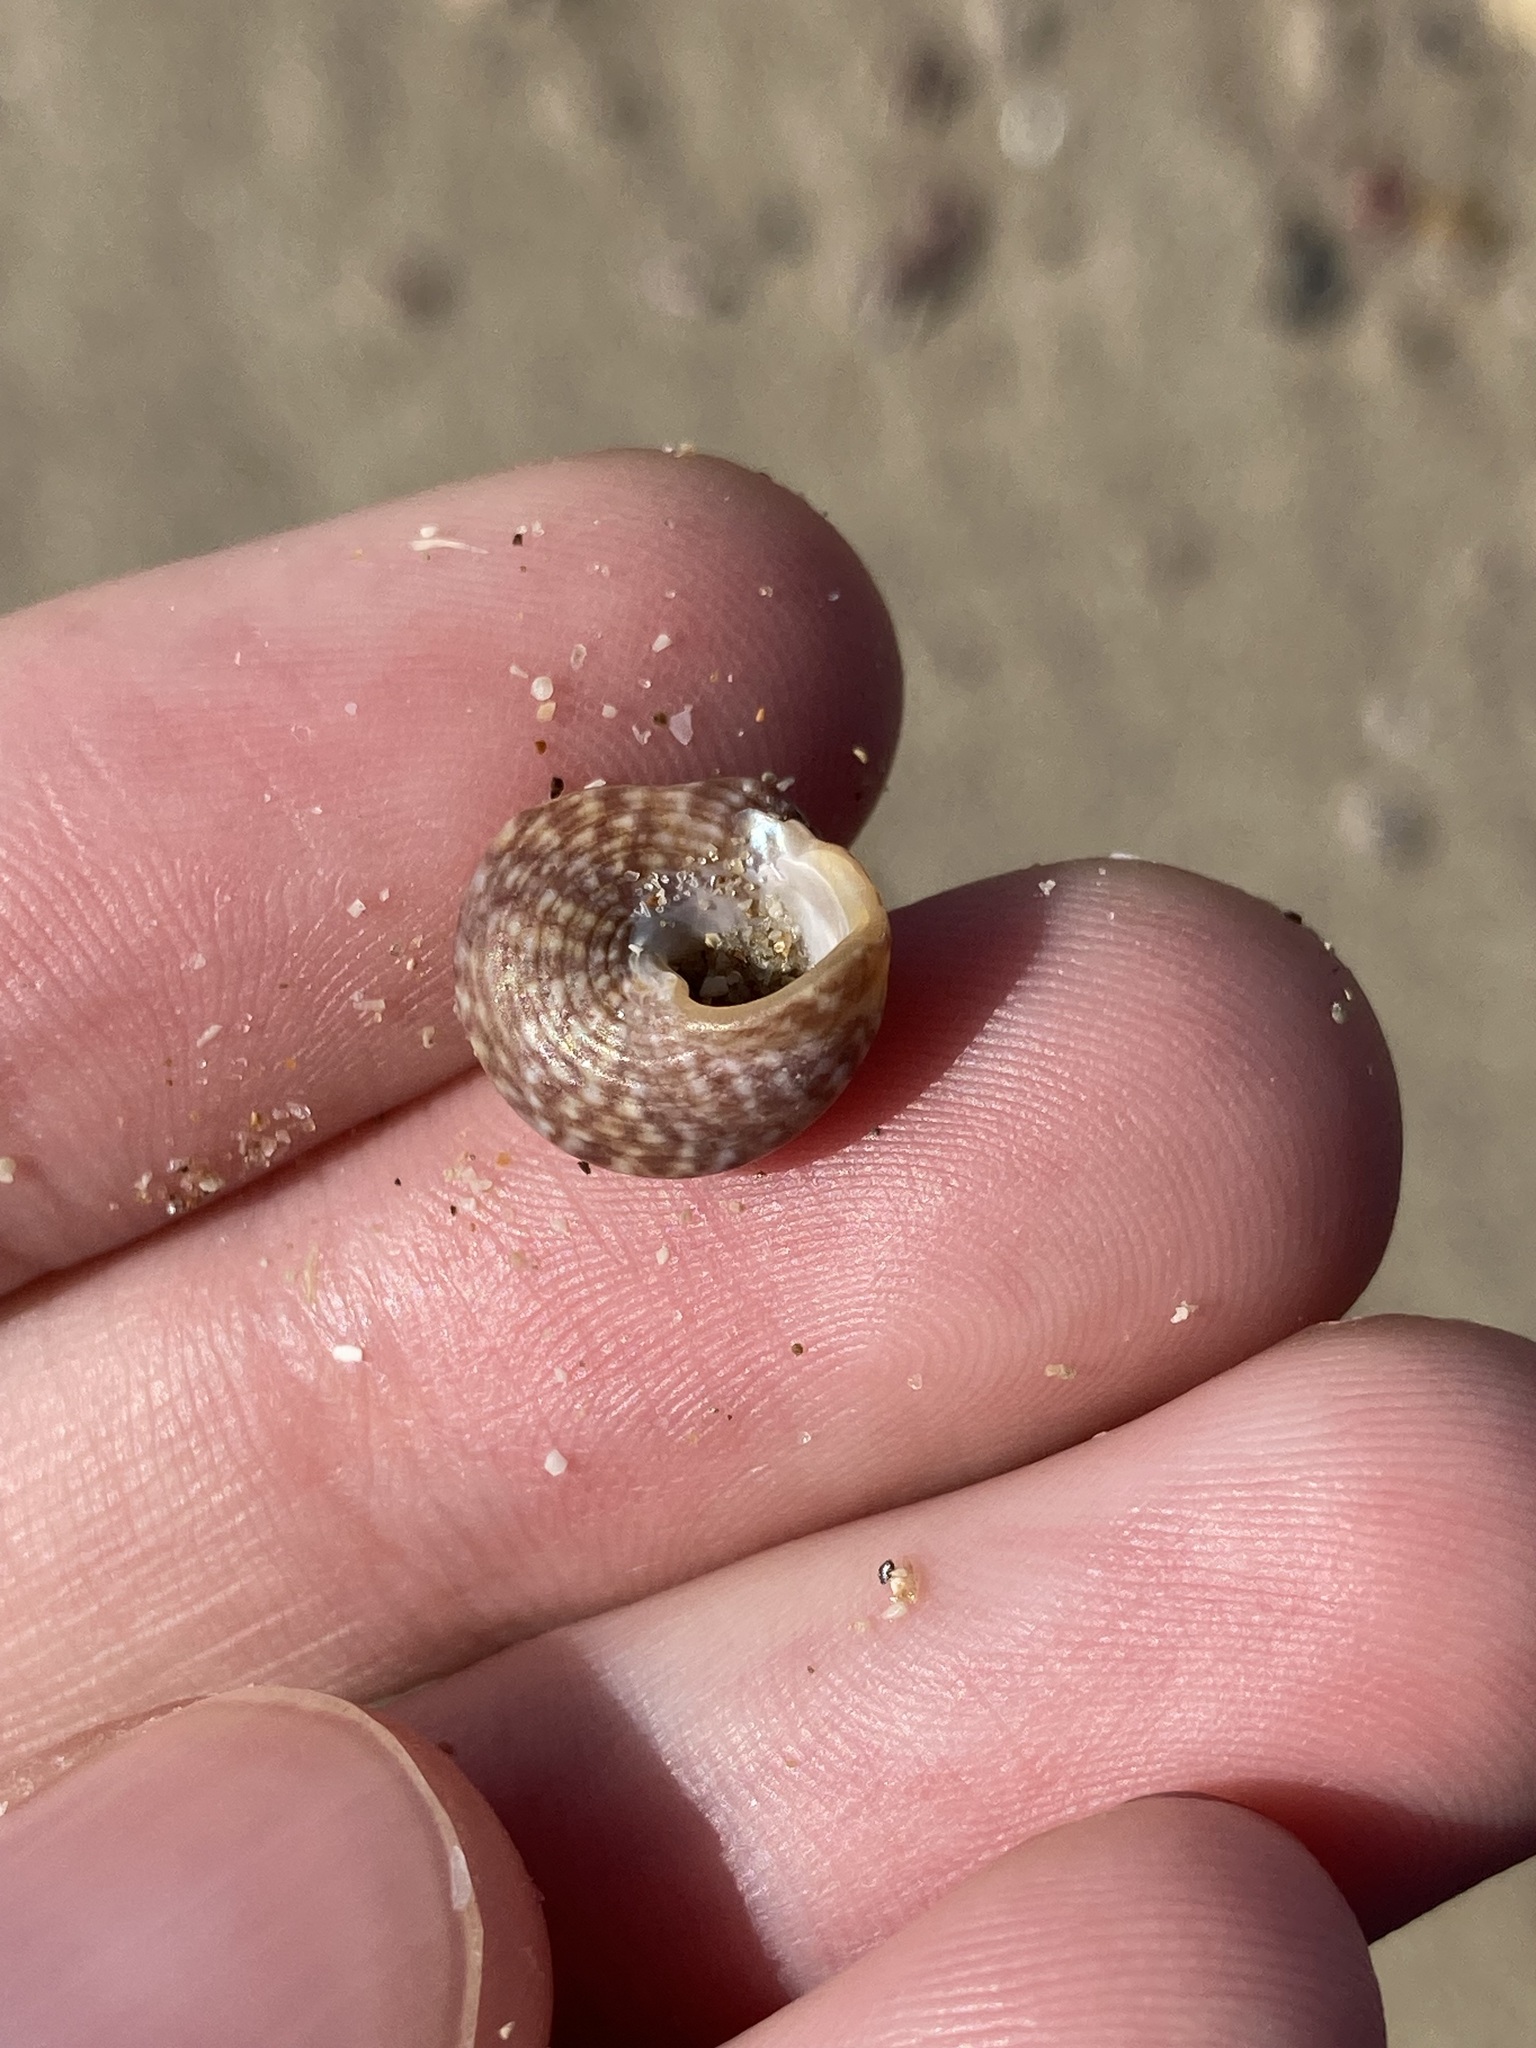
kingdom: Animalia
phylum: Mollusca
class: Gastropoda
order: Trochida
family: Trochidae
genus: Calthalotia
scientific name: Calthalotia fragum
